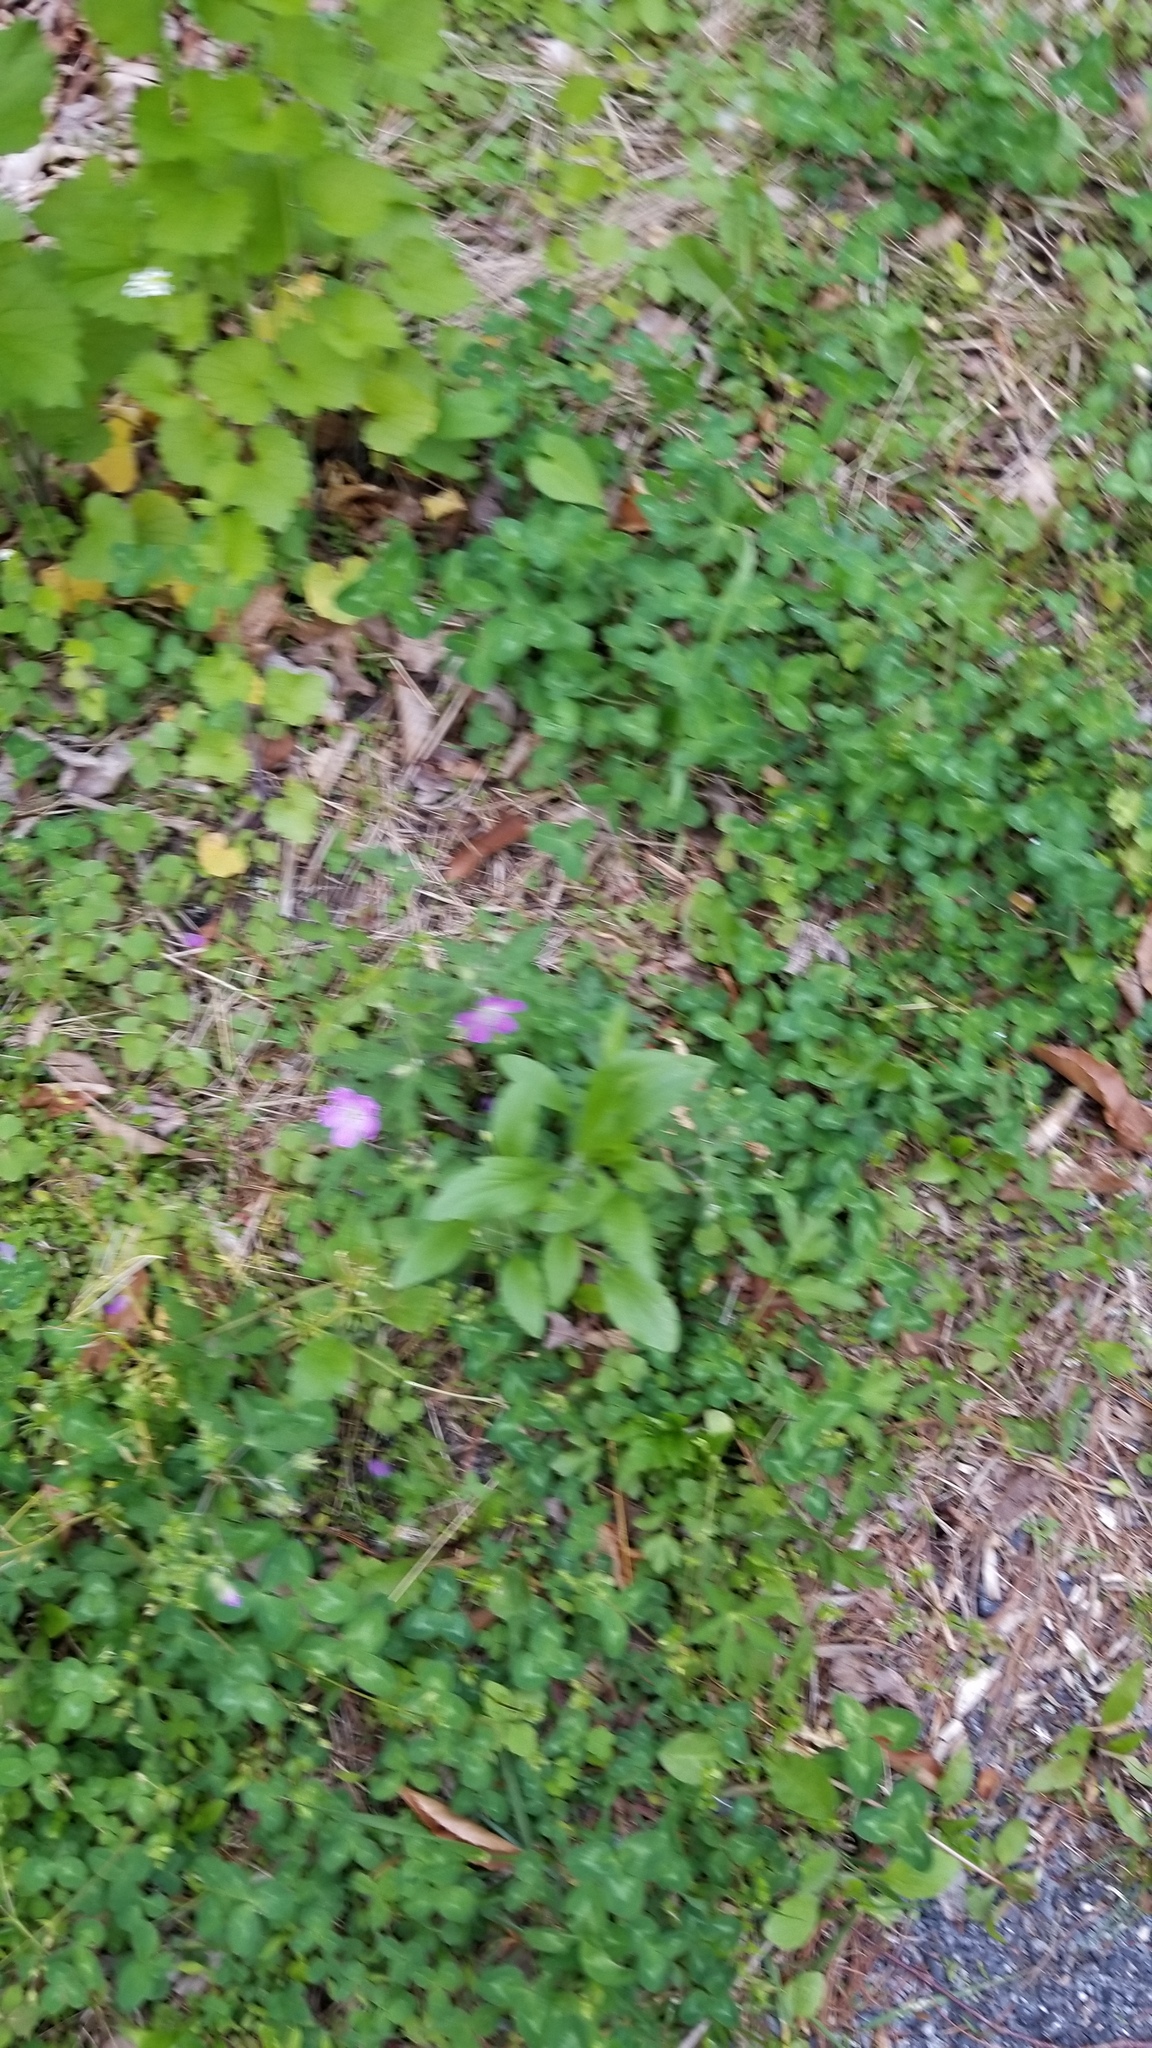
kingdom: Plantae
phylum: Tracheophyta
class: Magnoliopsida
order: Geraniales
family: Geraniaceae
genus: Geranium
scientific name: Geranium maculatum
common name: Spotted geranium
